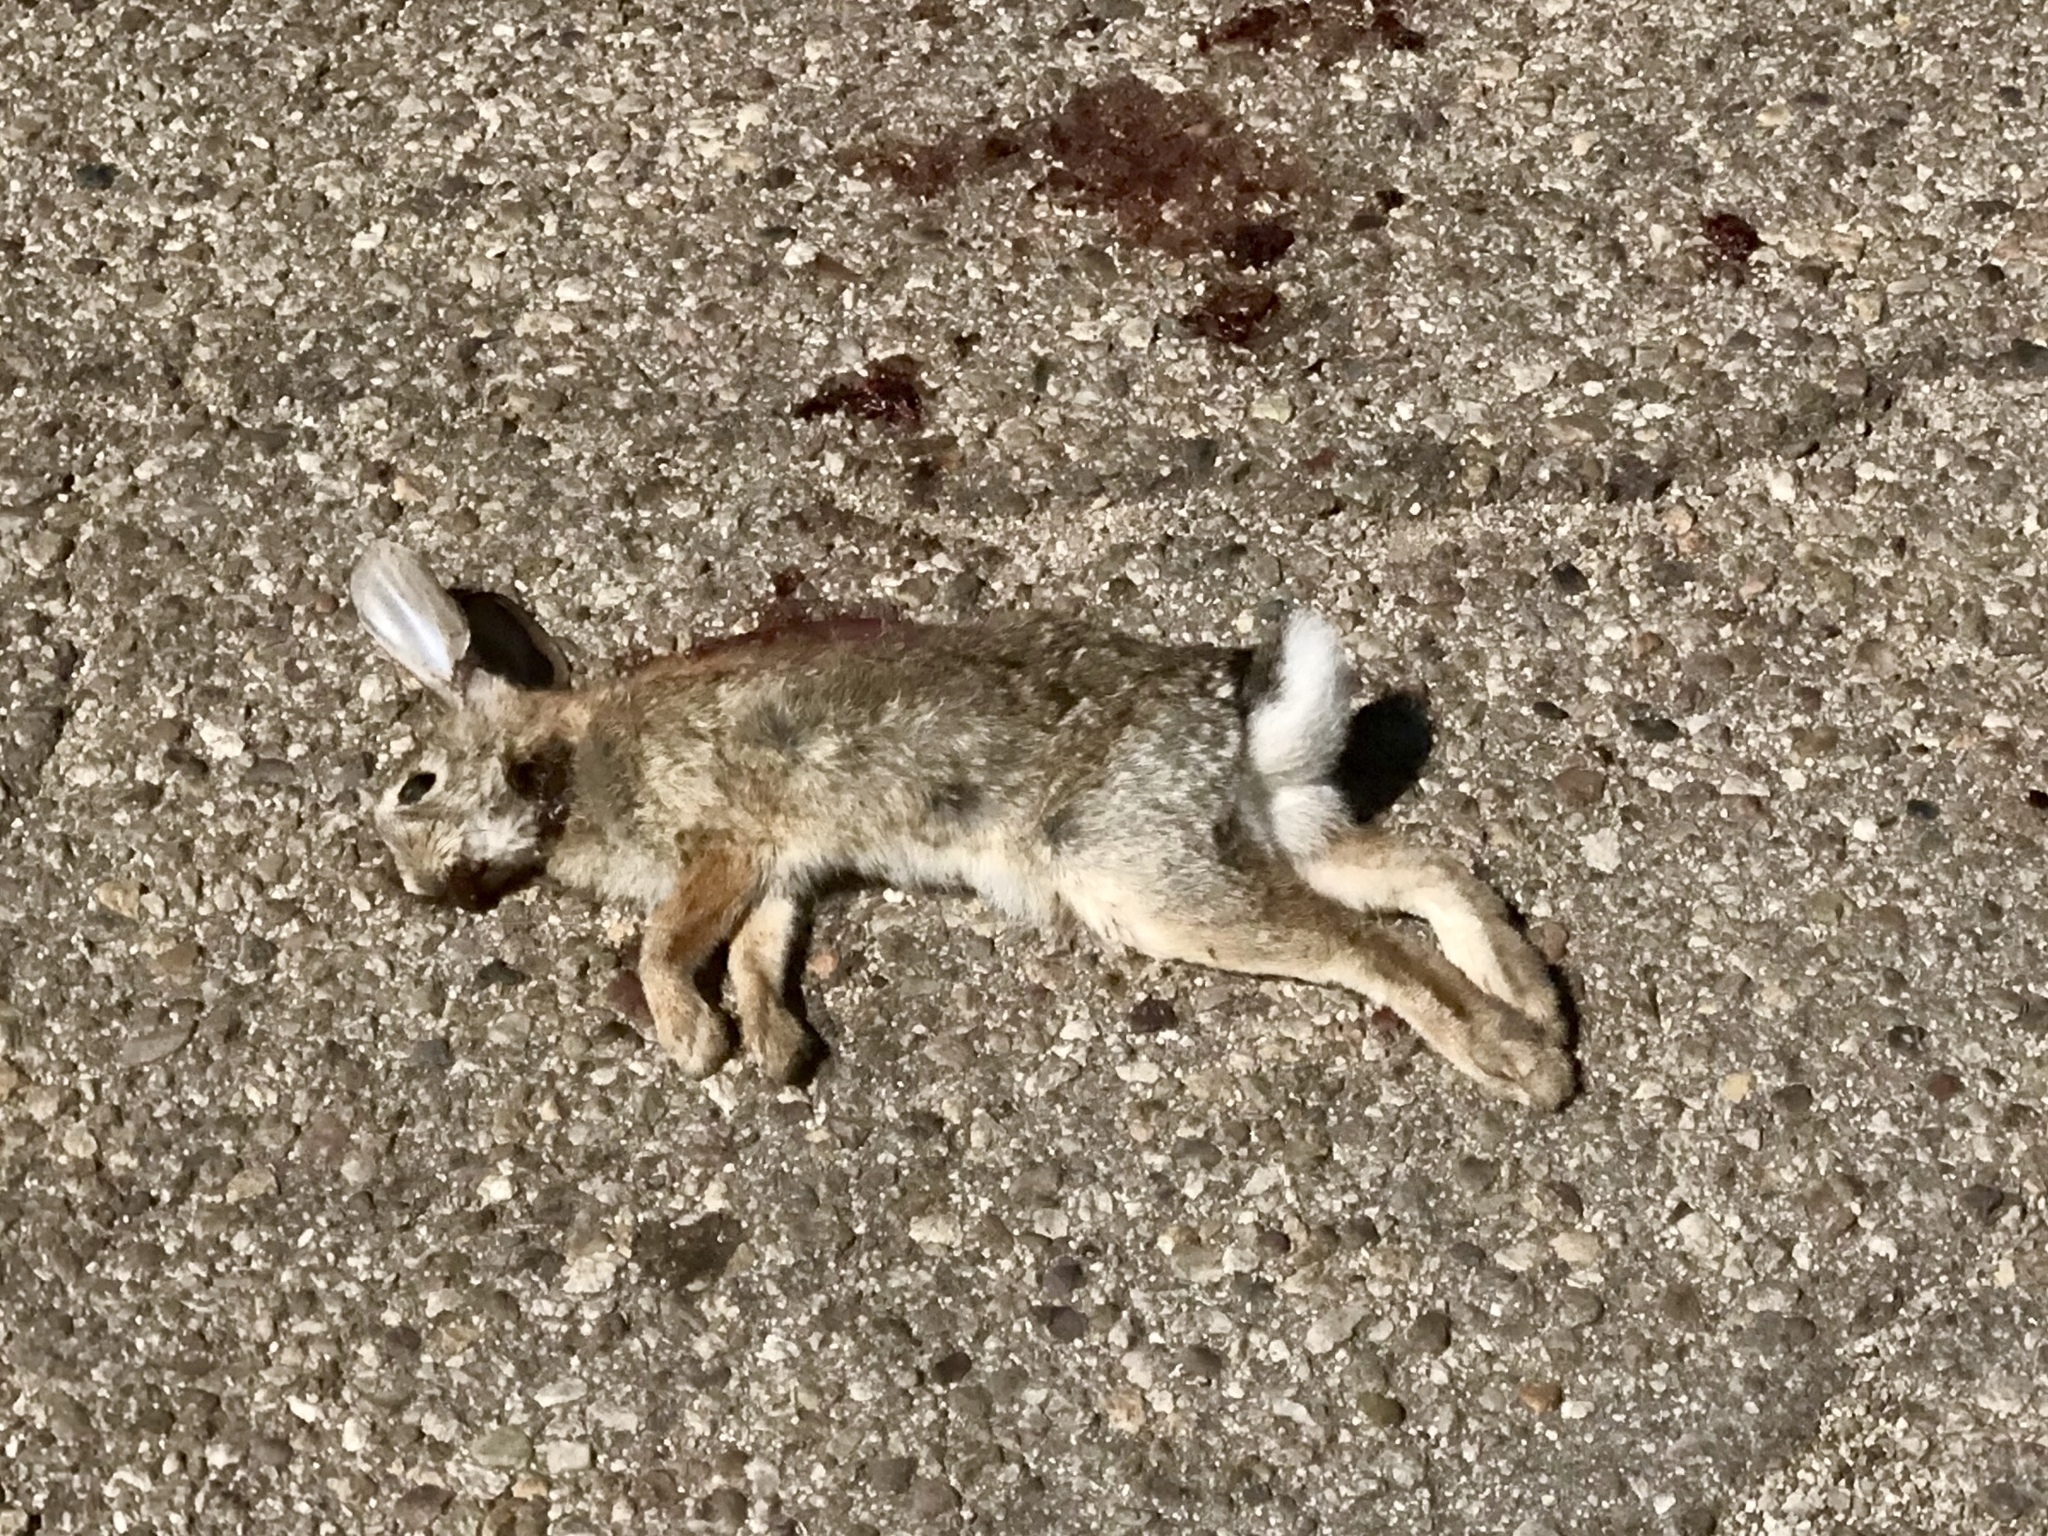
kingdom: Animalia
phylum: Chordata
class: Mammalia
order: Lagomorpha
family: Leporidae
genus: Sylvilagus
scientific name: Sylvilagus audubonii
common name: Desert cottontail
